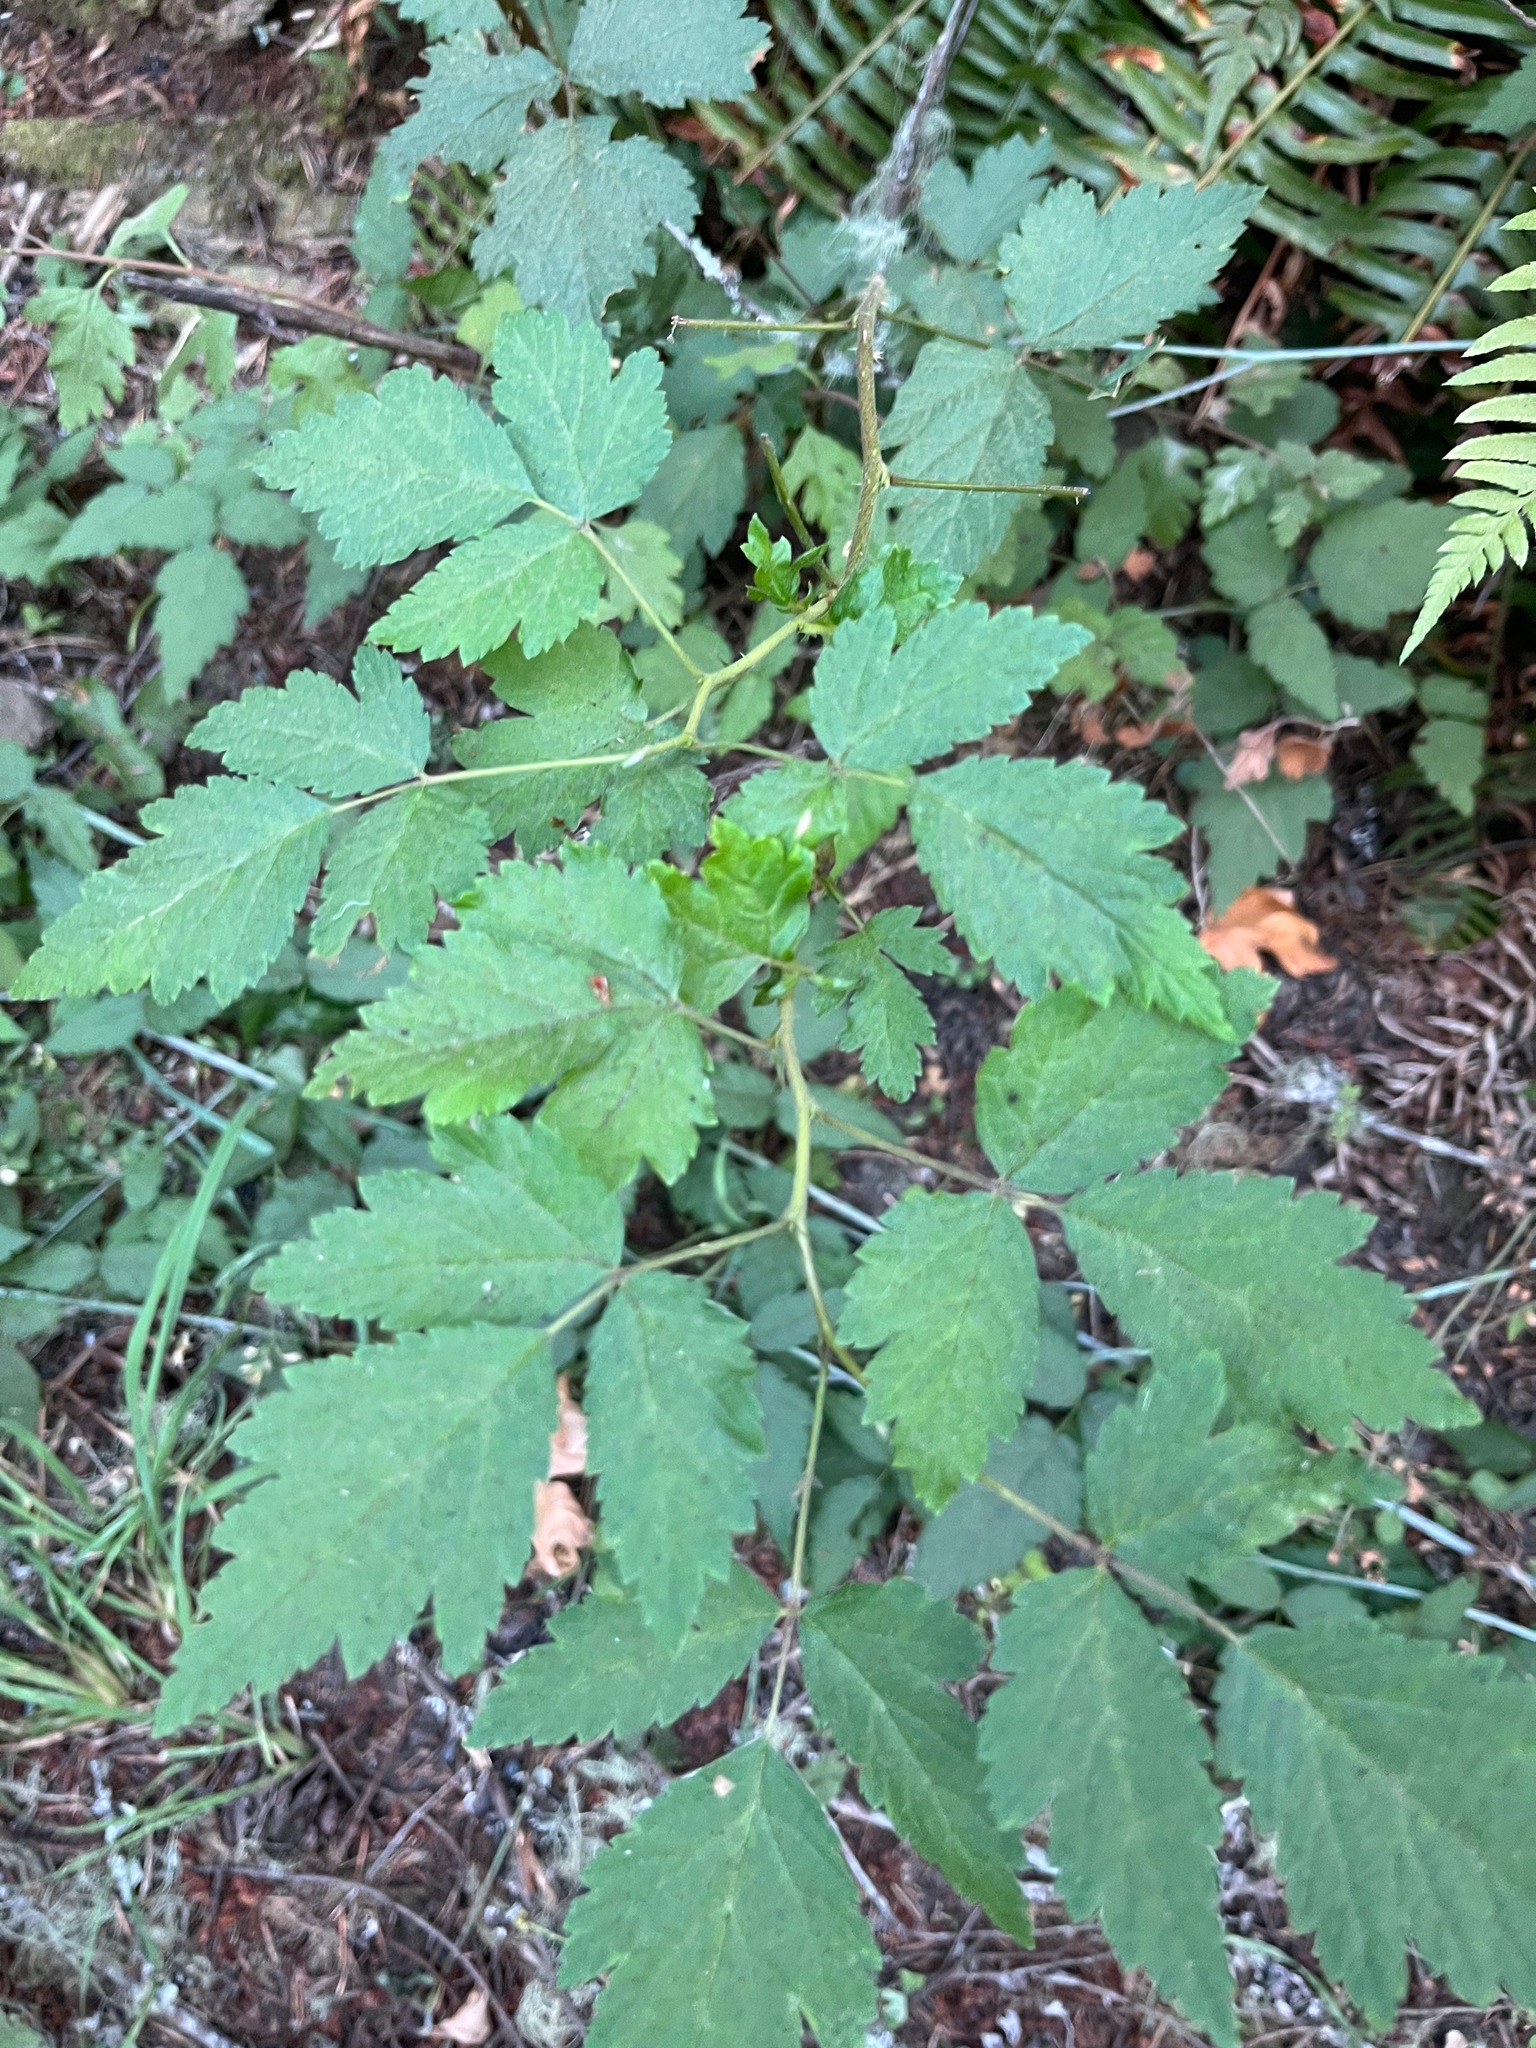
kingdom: Plantae
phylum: Tracheophyta
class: Magnoliopsida
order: Rosales
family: Rosaceae
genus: Rubus
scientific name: Rubus spectabilis
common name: Salmonberry
